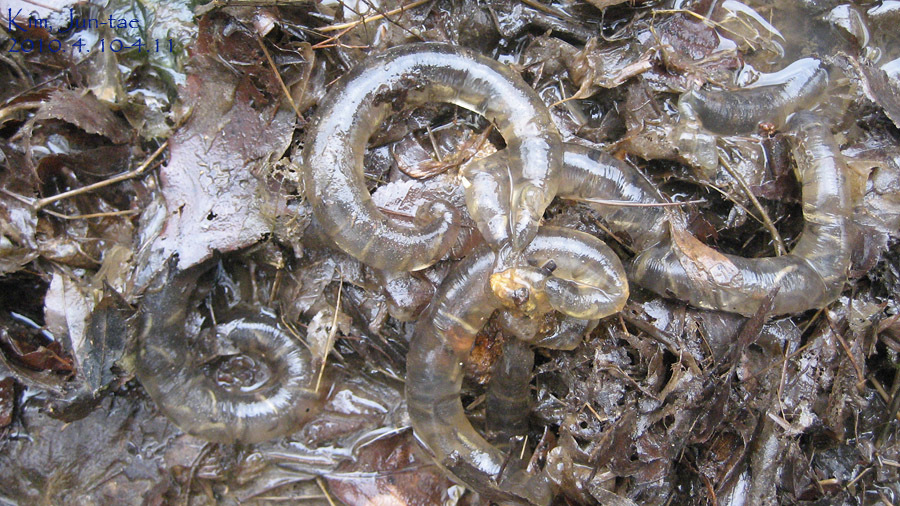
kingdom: Animalia
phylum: Chordata
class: Amphibia
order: Caudata
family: Hynobiidae
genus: Hynobius
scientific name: Hynobius quelpaertensis
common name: Cheju salamander
